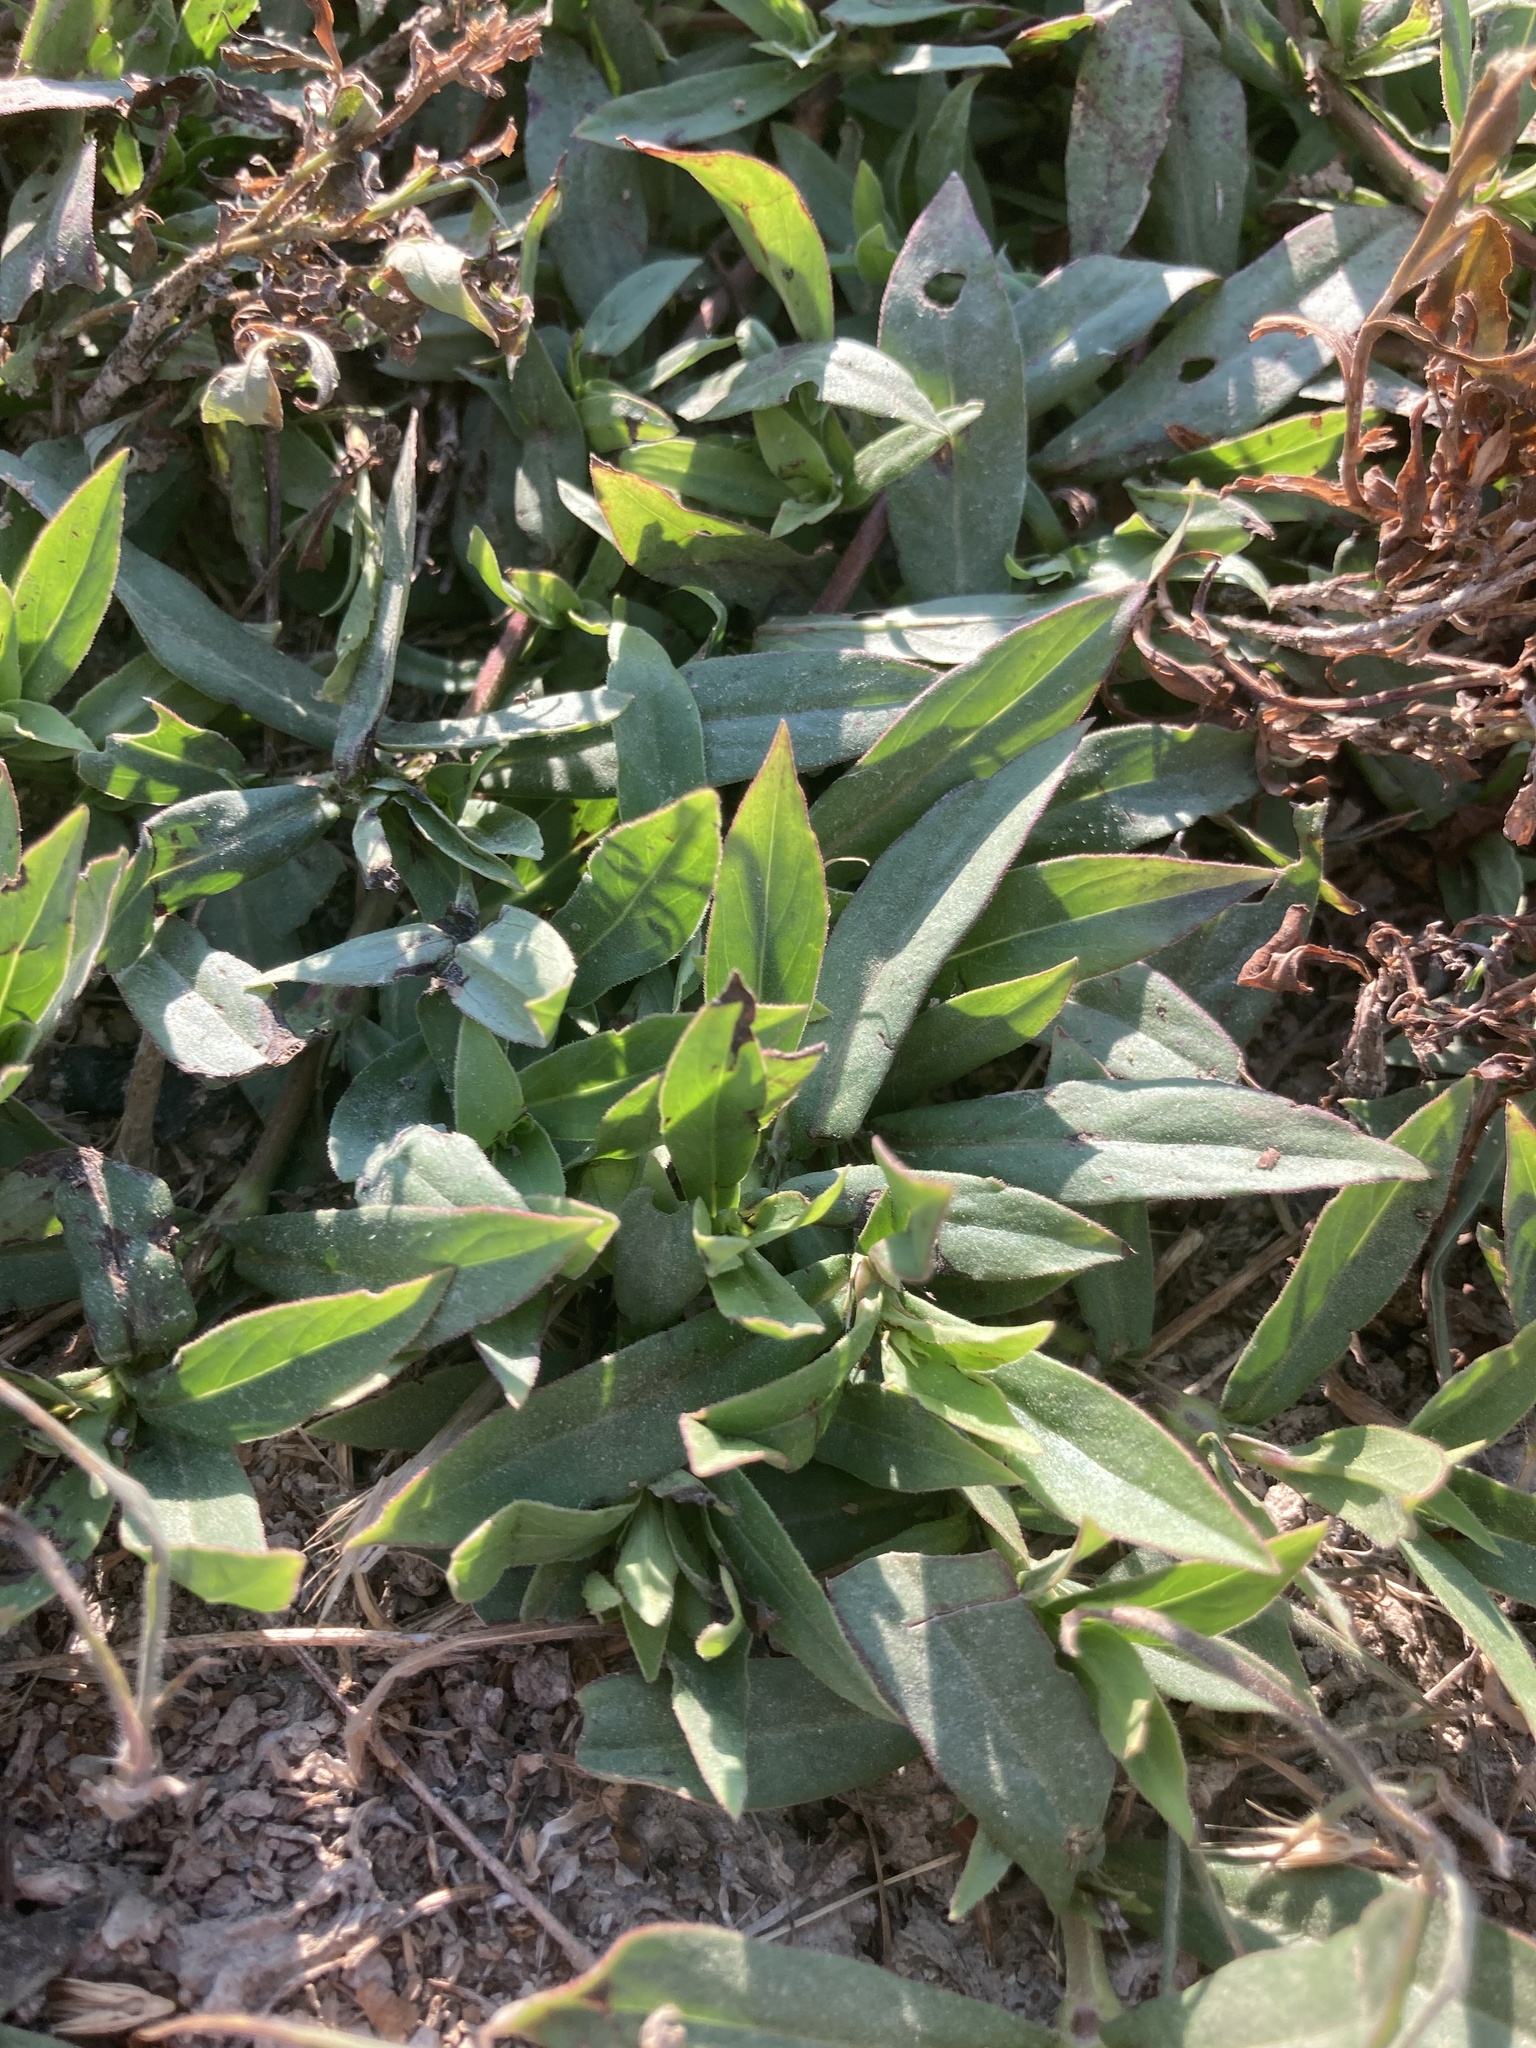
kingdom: Plantae
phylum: Tracheophyta
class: Magnoliopsida
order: Gentianales
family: Rubiaceae
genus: Diodia
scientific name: Diodia virginiana
